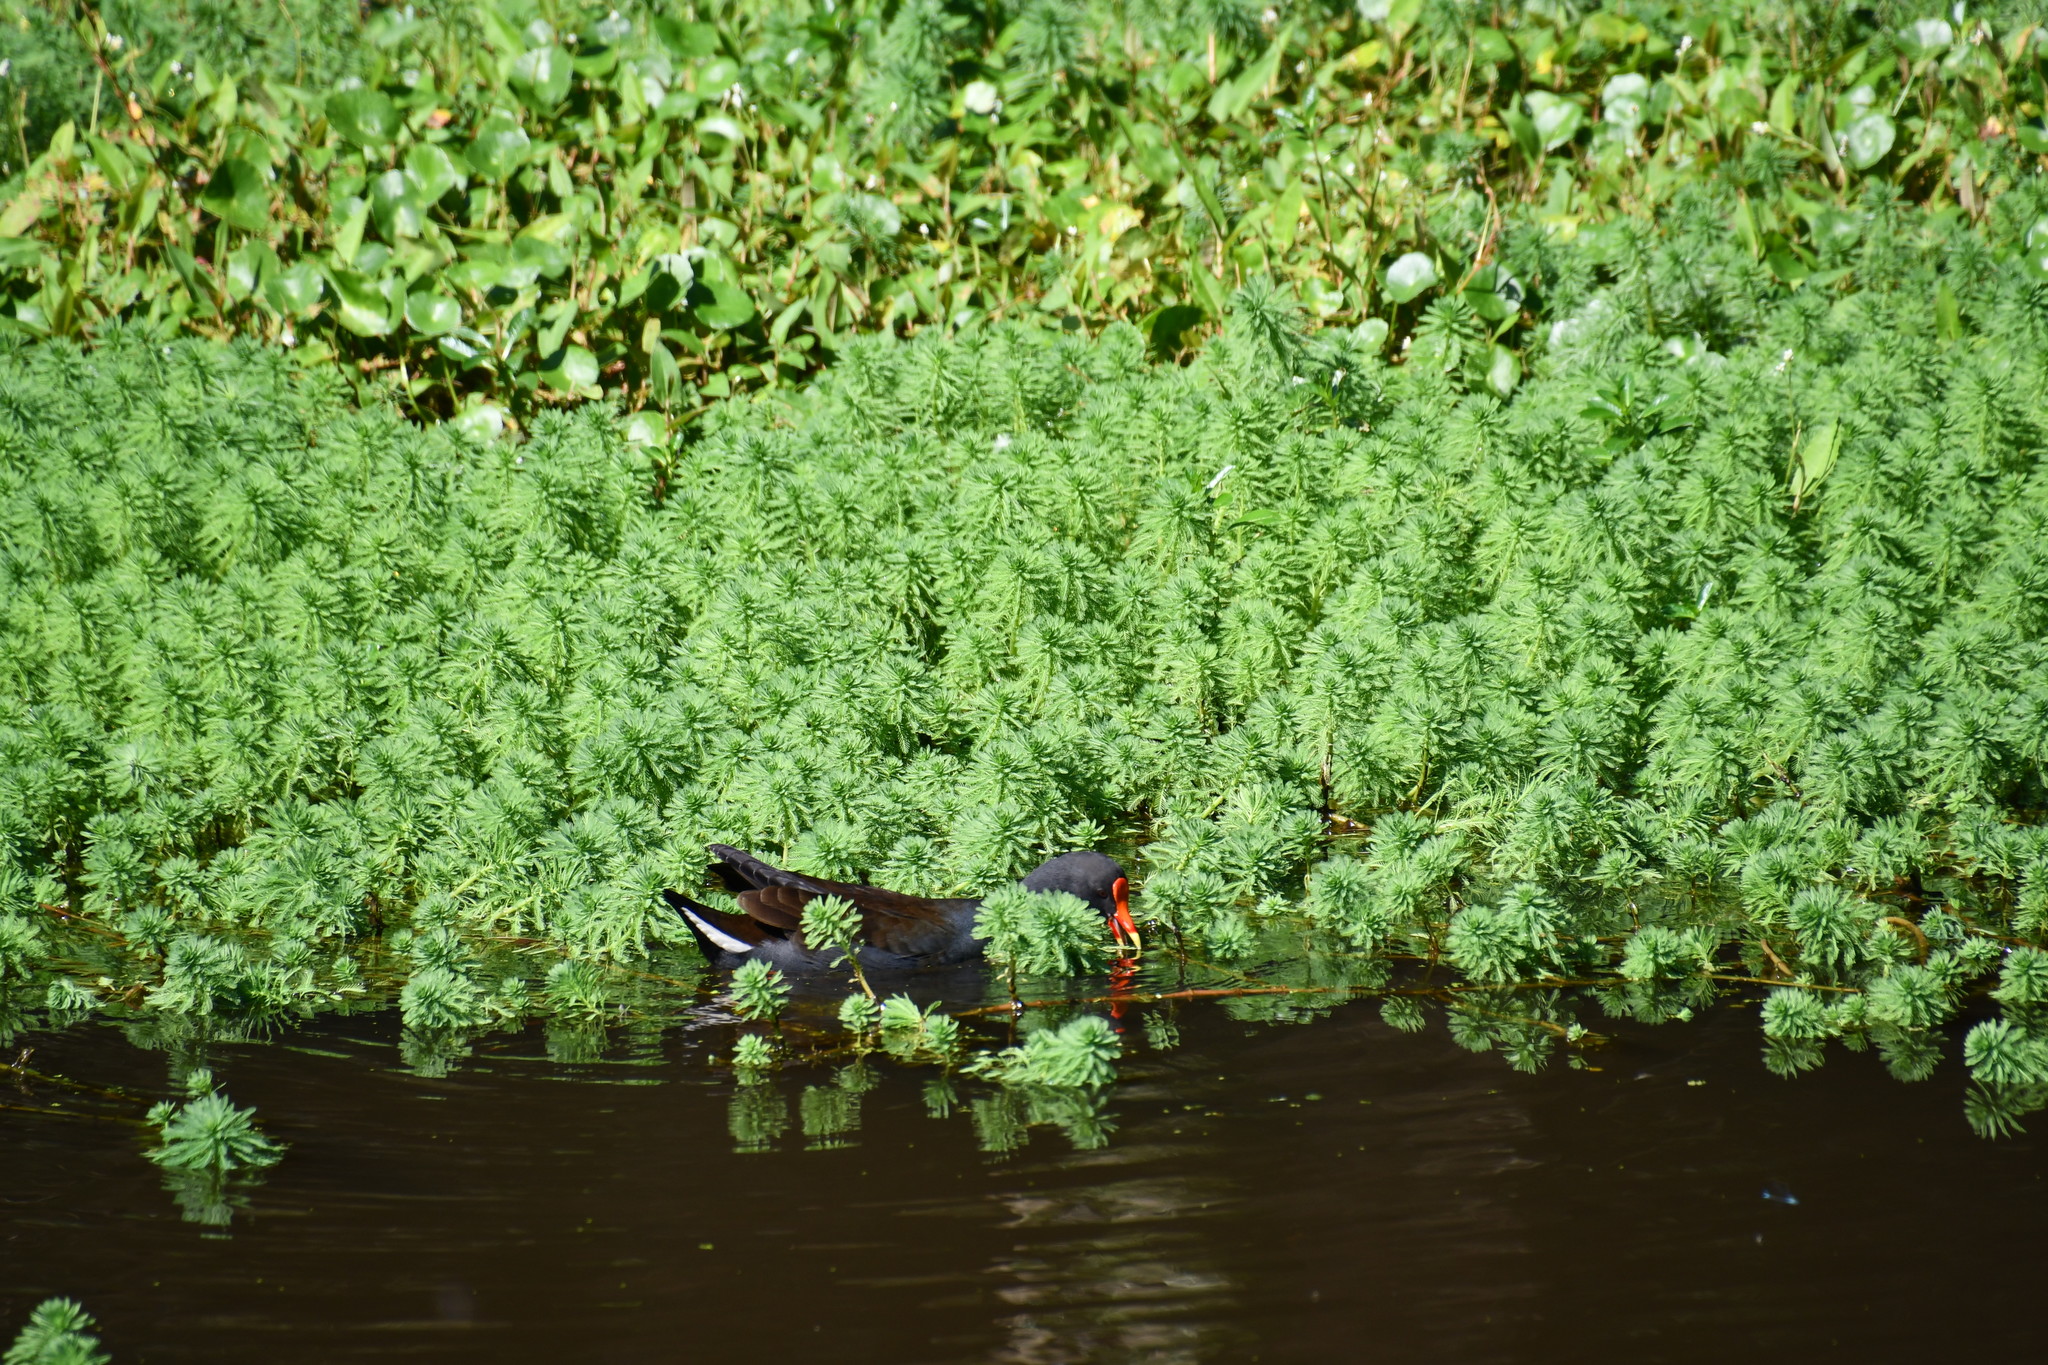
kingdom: Animalia
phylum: Chordata
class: Aves
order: Gruiformes
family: Rallidae
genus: Gallinula
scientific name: Gallinula tenebrosa
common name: Dusky moorhen
